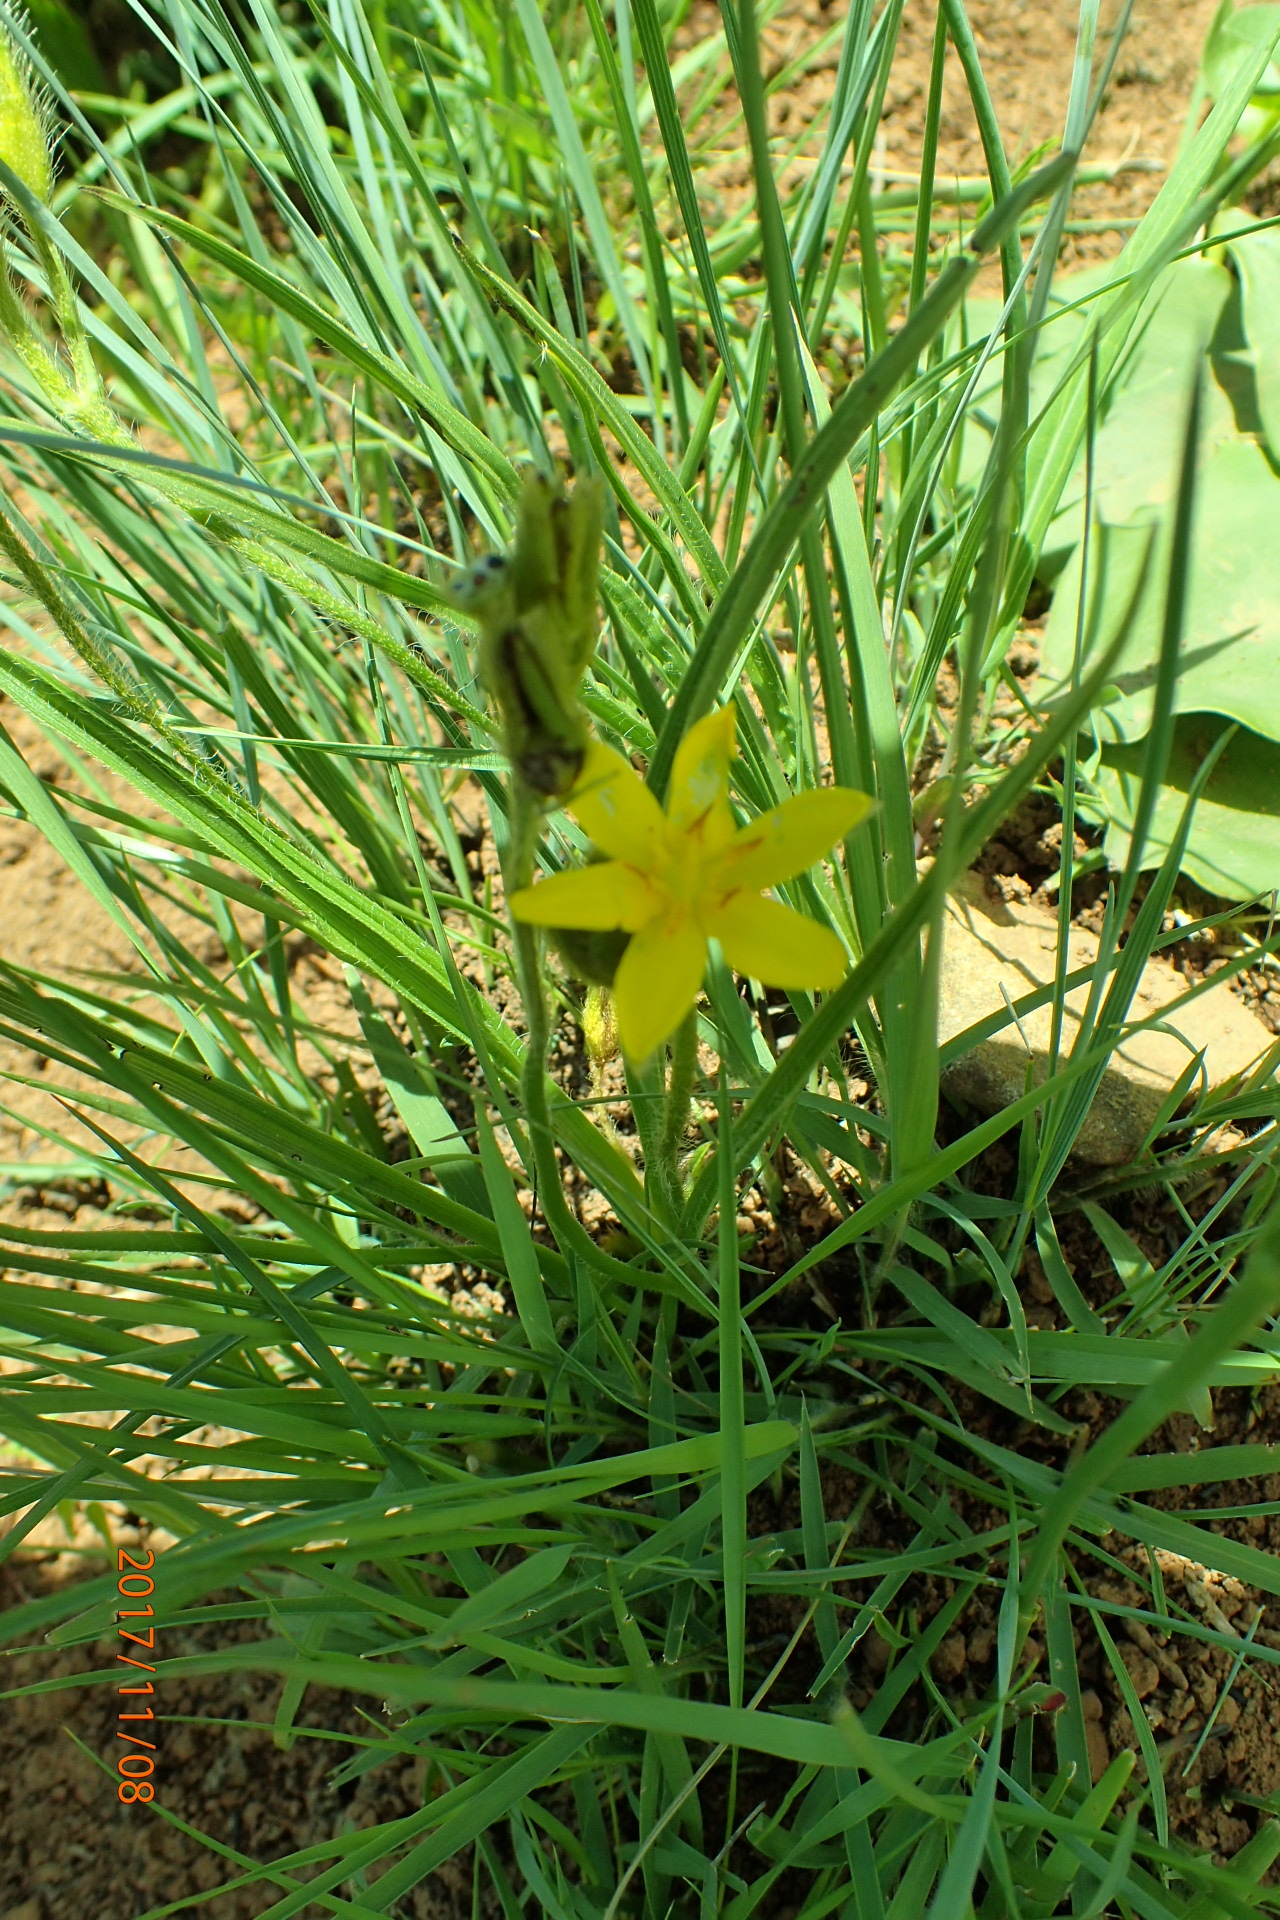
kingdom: Plantae
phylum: Tracheophyta
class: Liliopsida
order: Asparagales
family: Hypoxidaceae
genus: Hypoxis
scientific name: Hypoxis angustifolia
